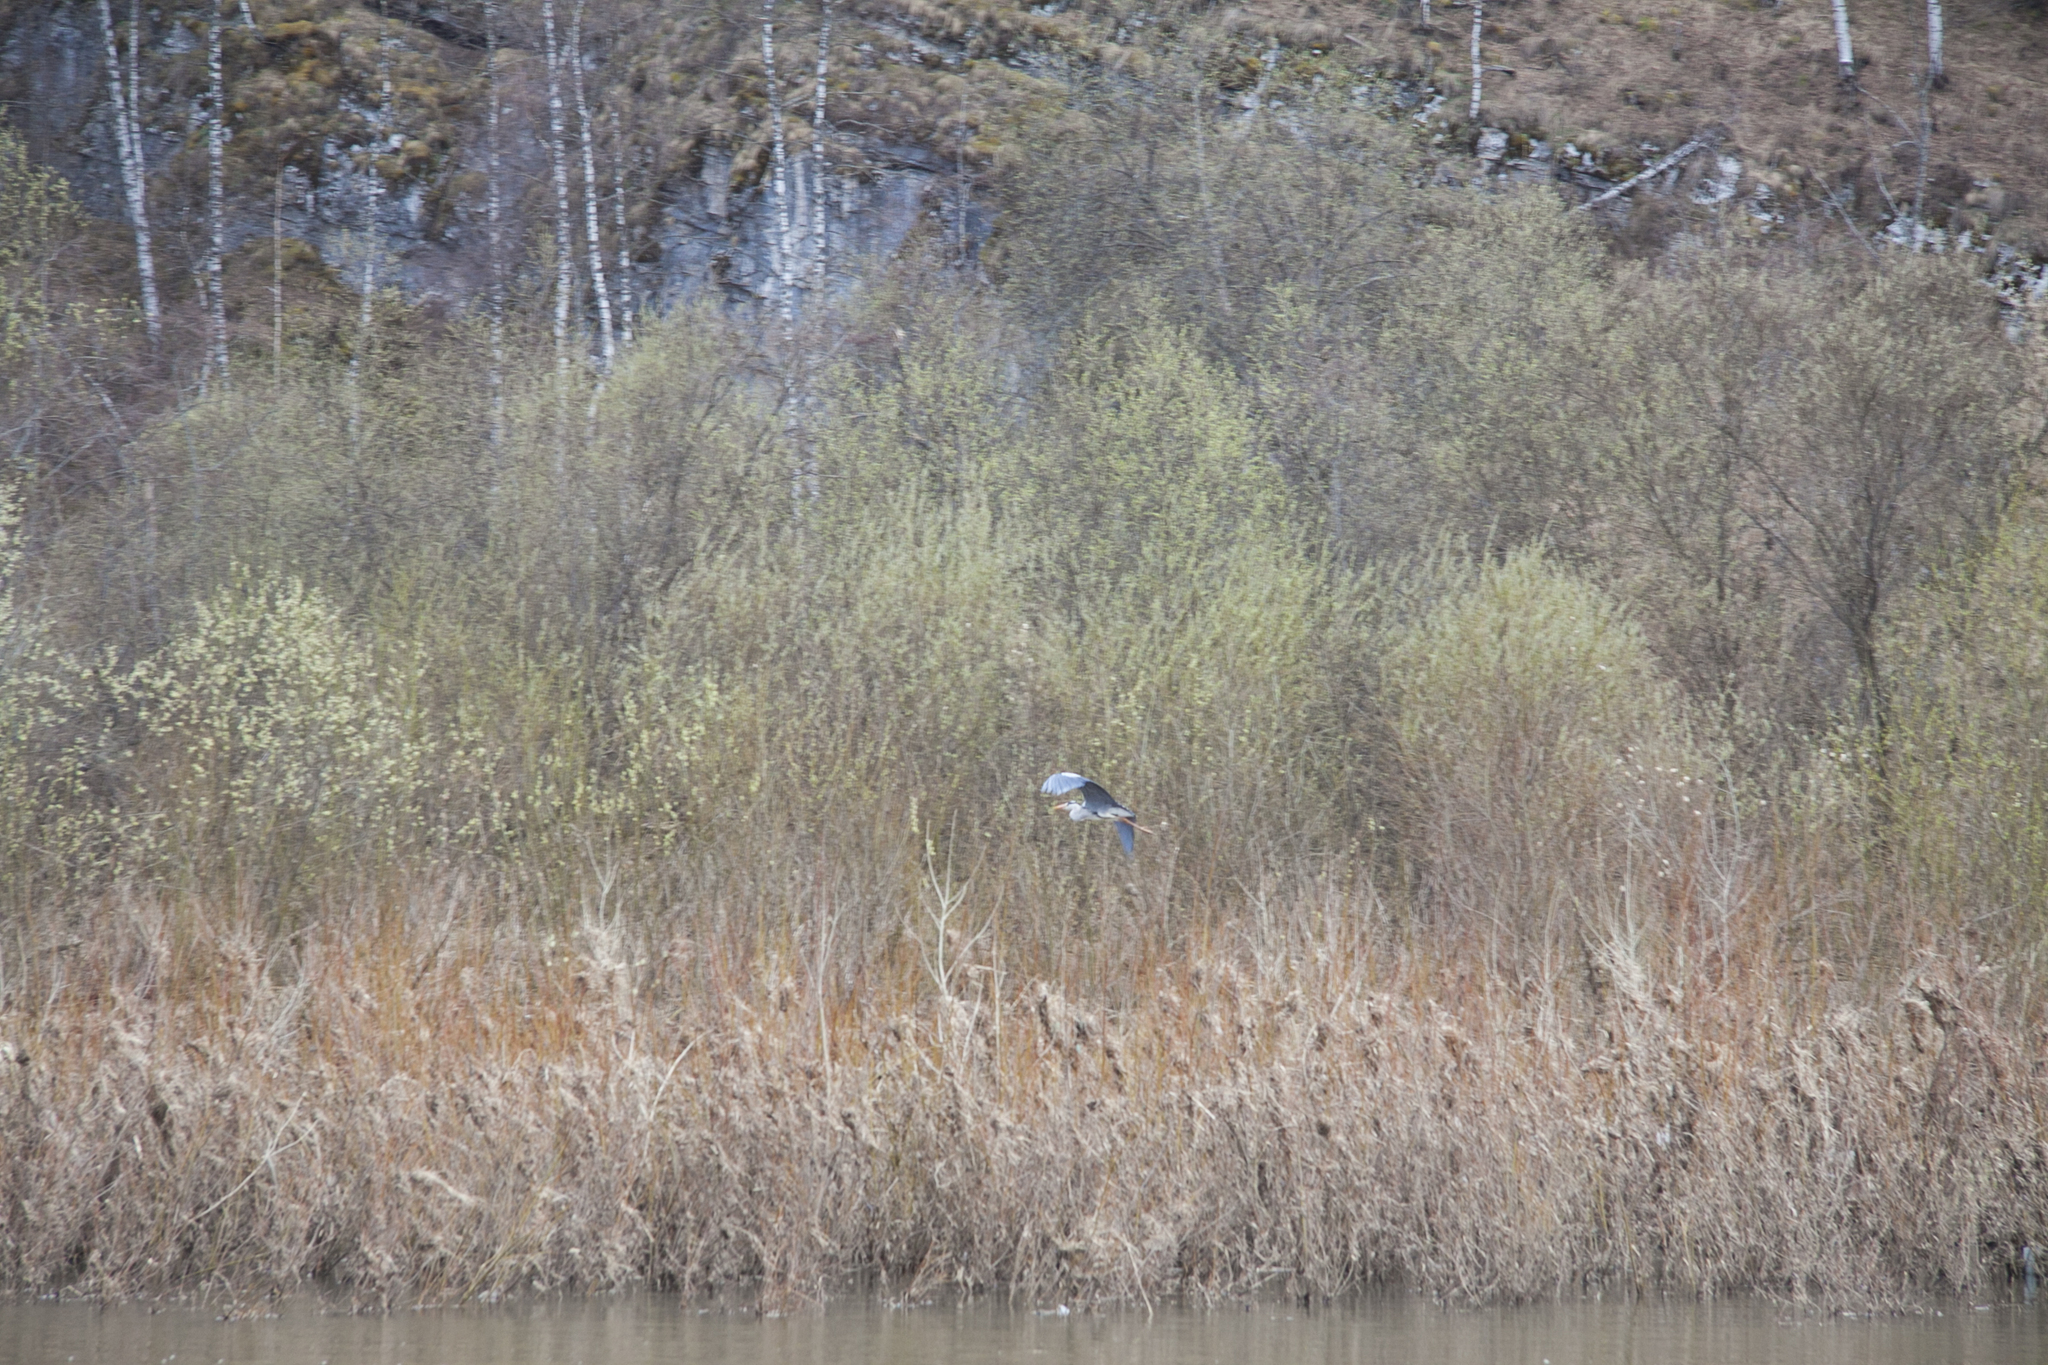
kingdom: Animalia
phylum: Chordata
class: Aves
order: Pelecaniformes
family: Ardeidae
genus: Ardea
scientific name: Ardea cinerea
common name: Grey heron
